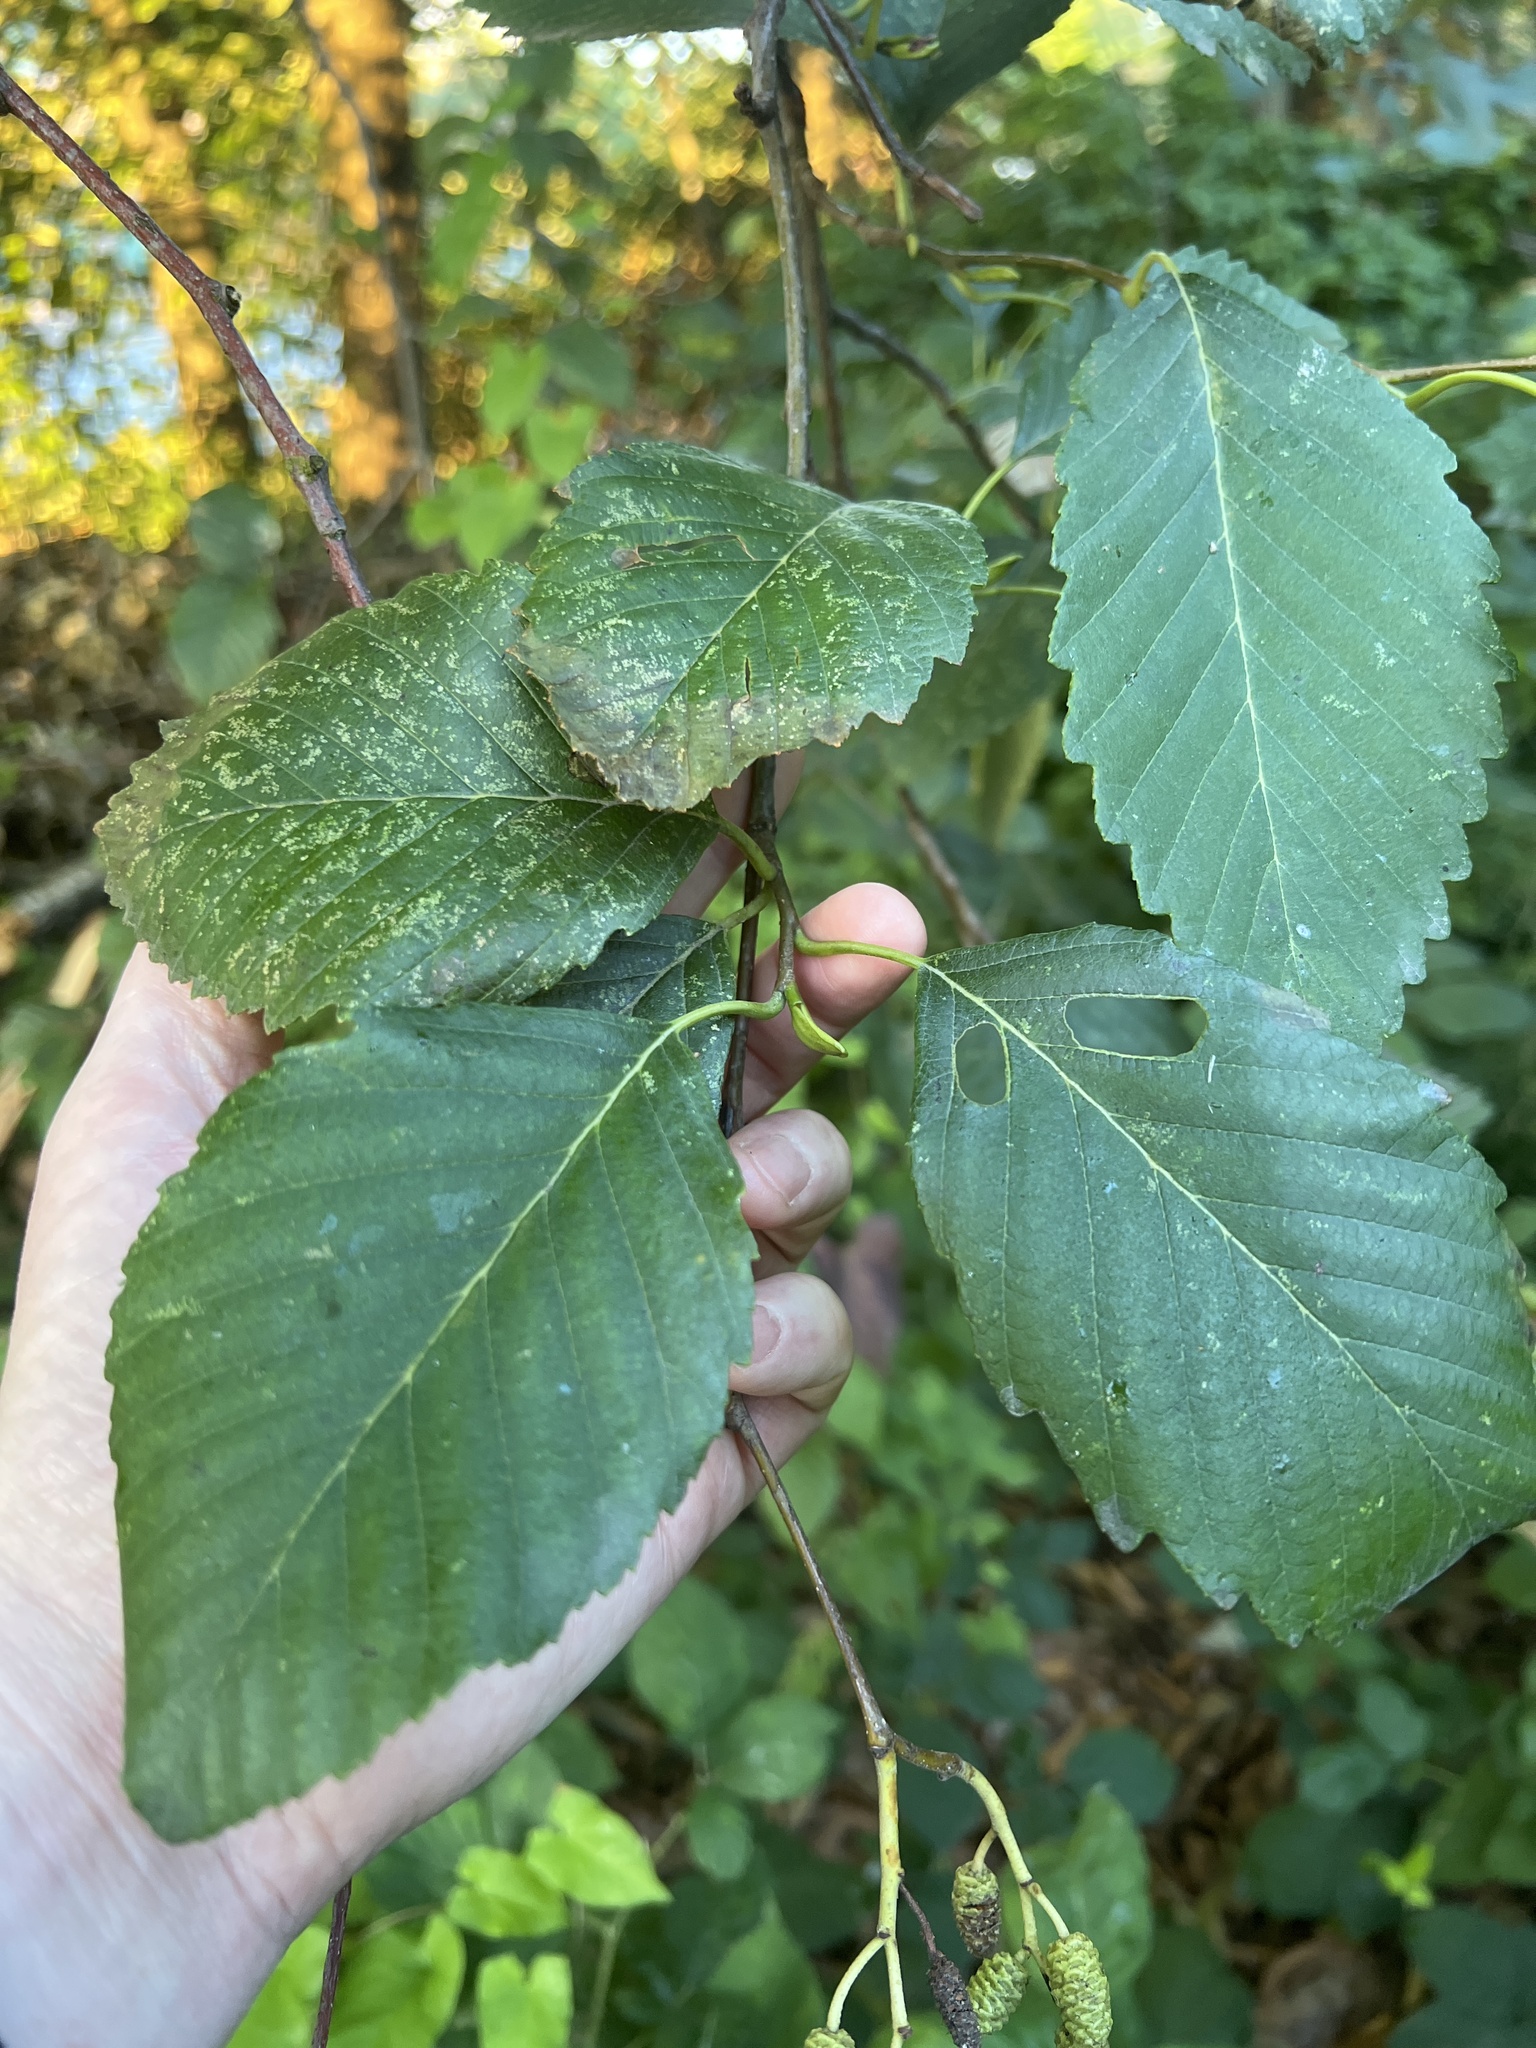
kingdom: Plantae
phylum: Tracheophyta
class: Magnoliopsida
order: Fagales
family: Betulaceae
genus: Alnus
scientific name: Alnus rubra
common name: Red alder
